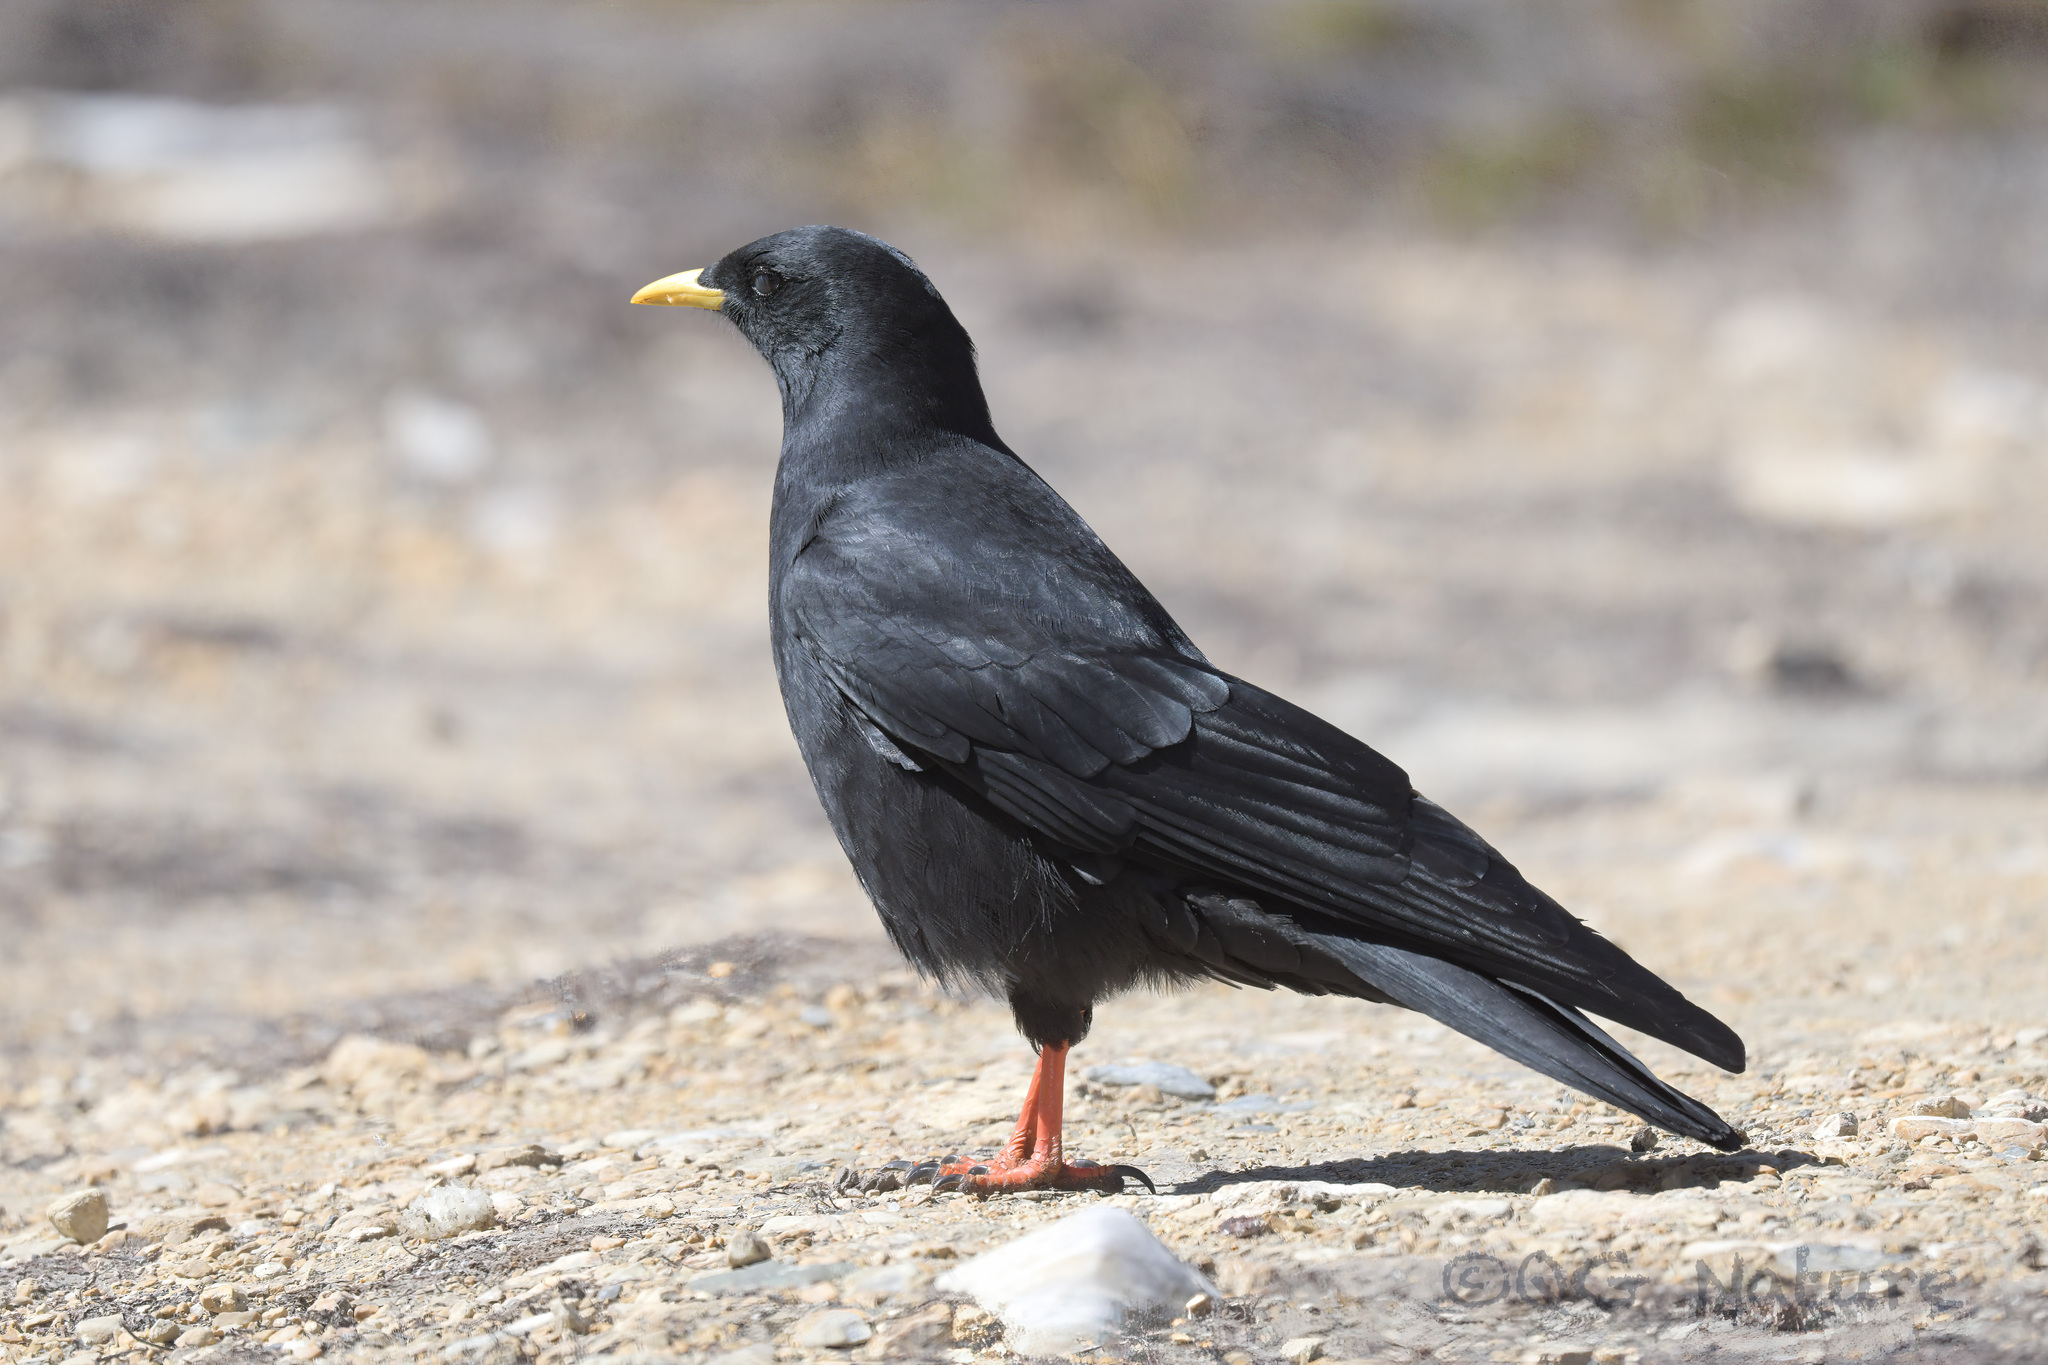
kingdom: Animalia
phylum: Chordata
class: Aves
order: Passeriformes
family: Corvidae
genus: Pyrrhocorax
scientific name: Pyrrhocorax graculus
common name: Alpine chough
